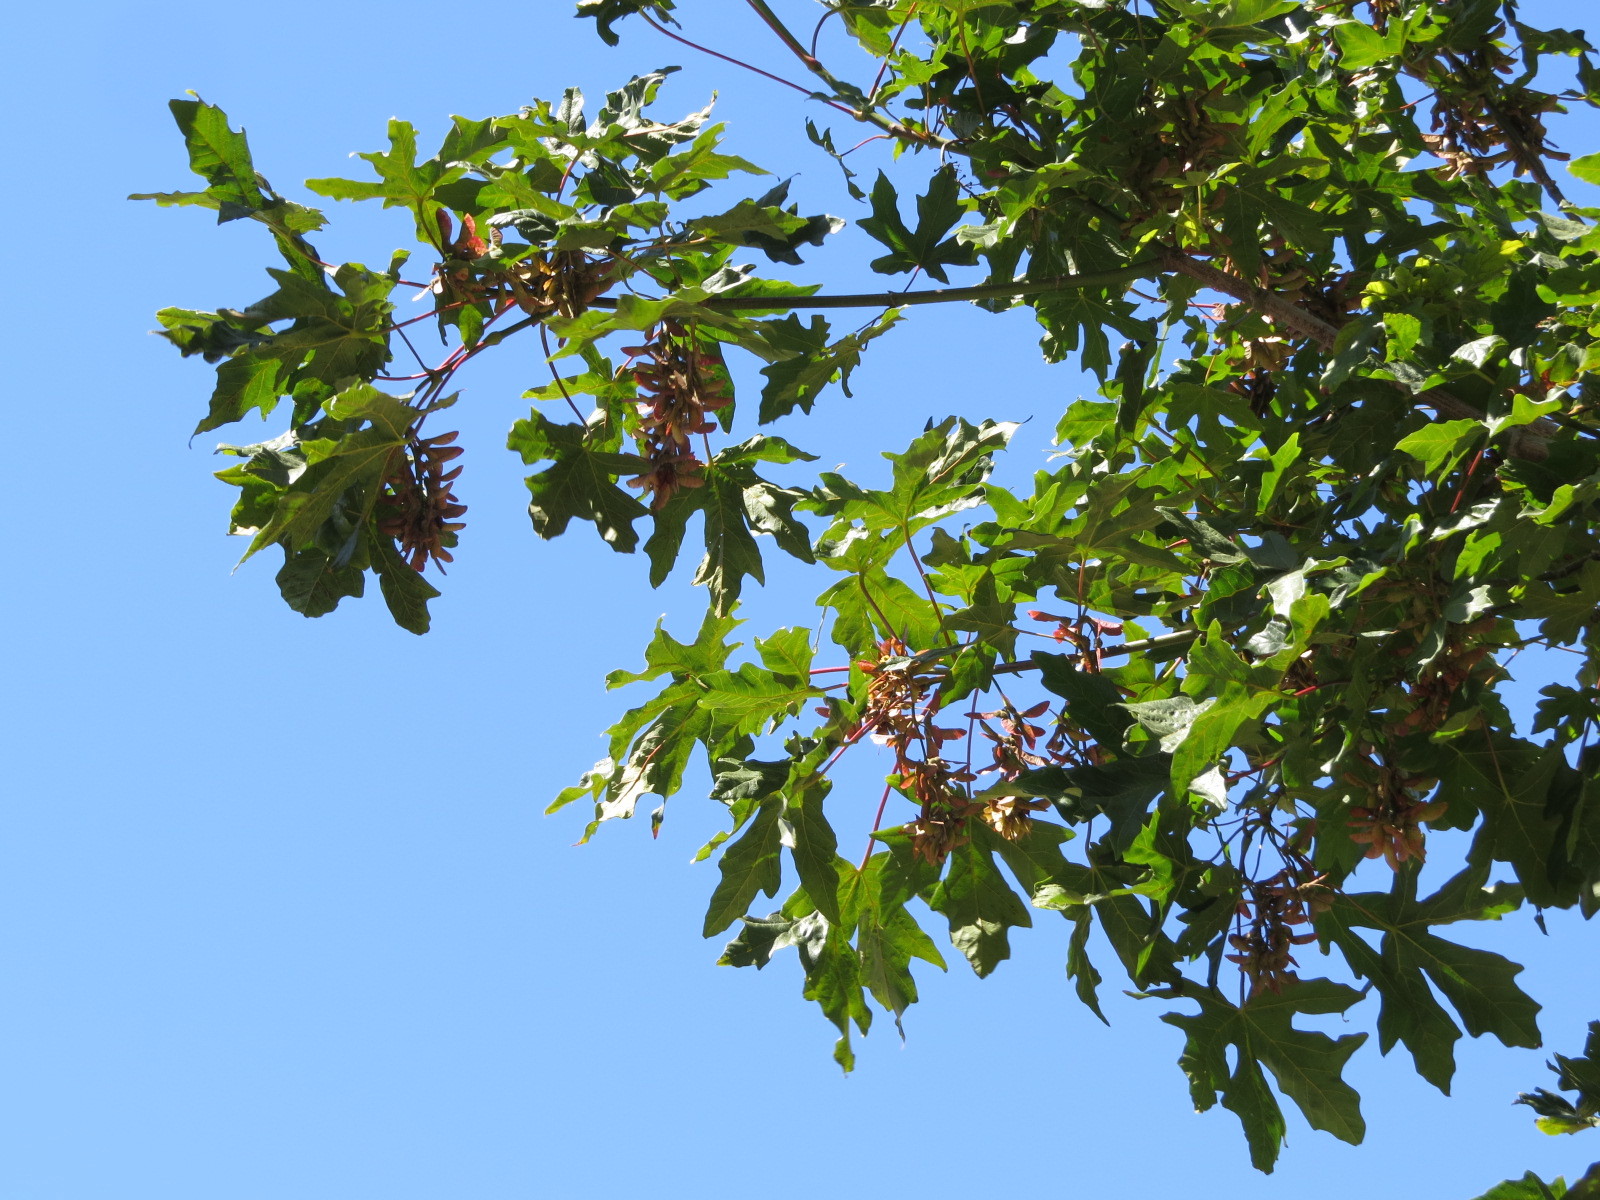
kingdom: Plantae
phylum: Tracheophyta
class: Magnoliopsida
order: Sapindales
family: Sapindaceae
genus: Acer
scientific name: Acer macrophyllum
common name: Oregon maple
